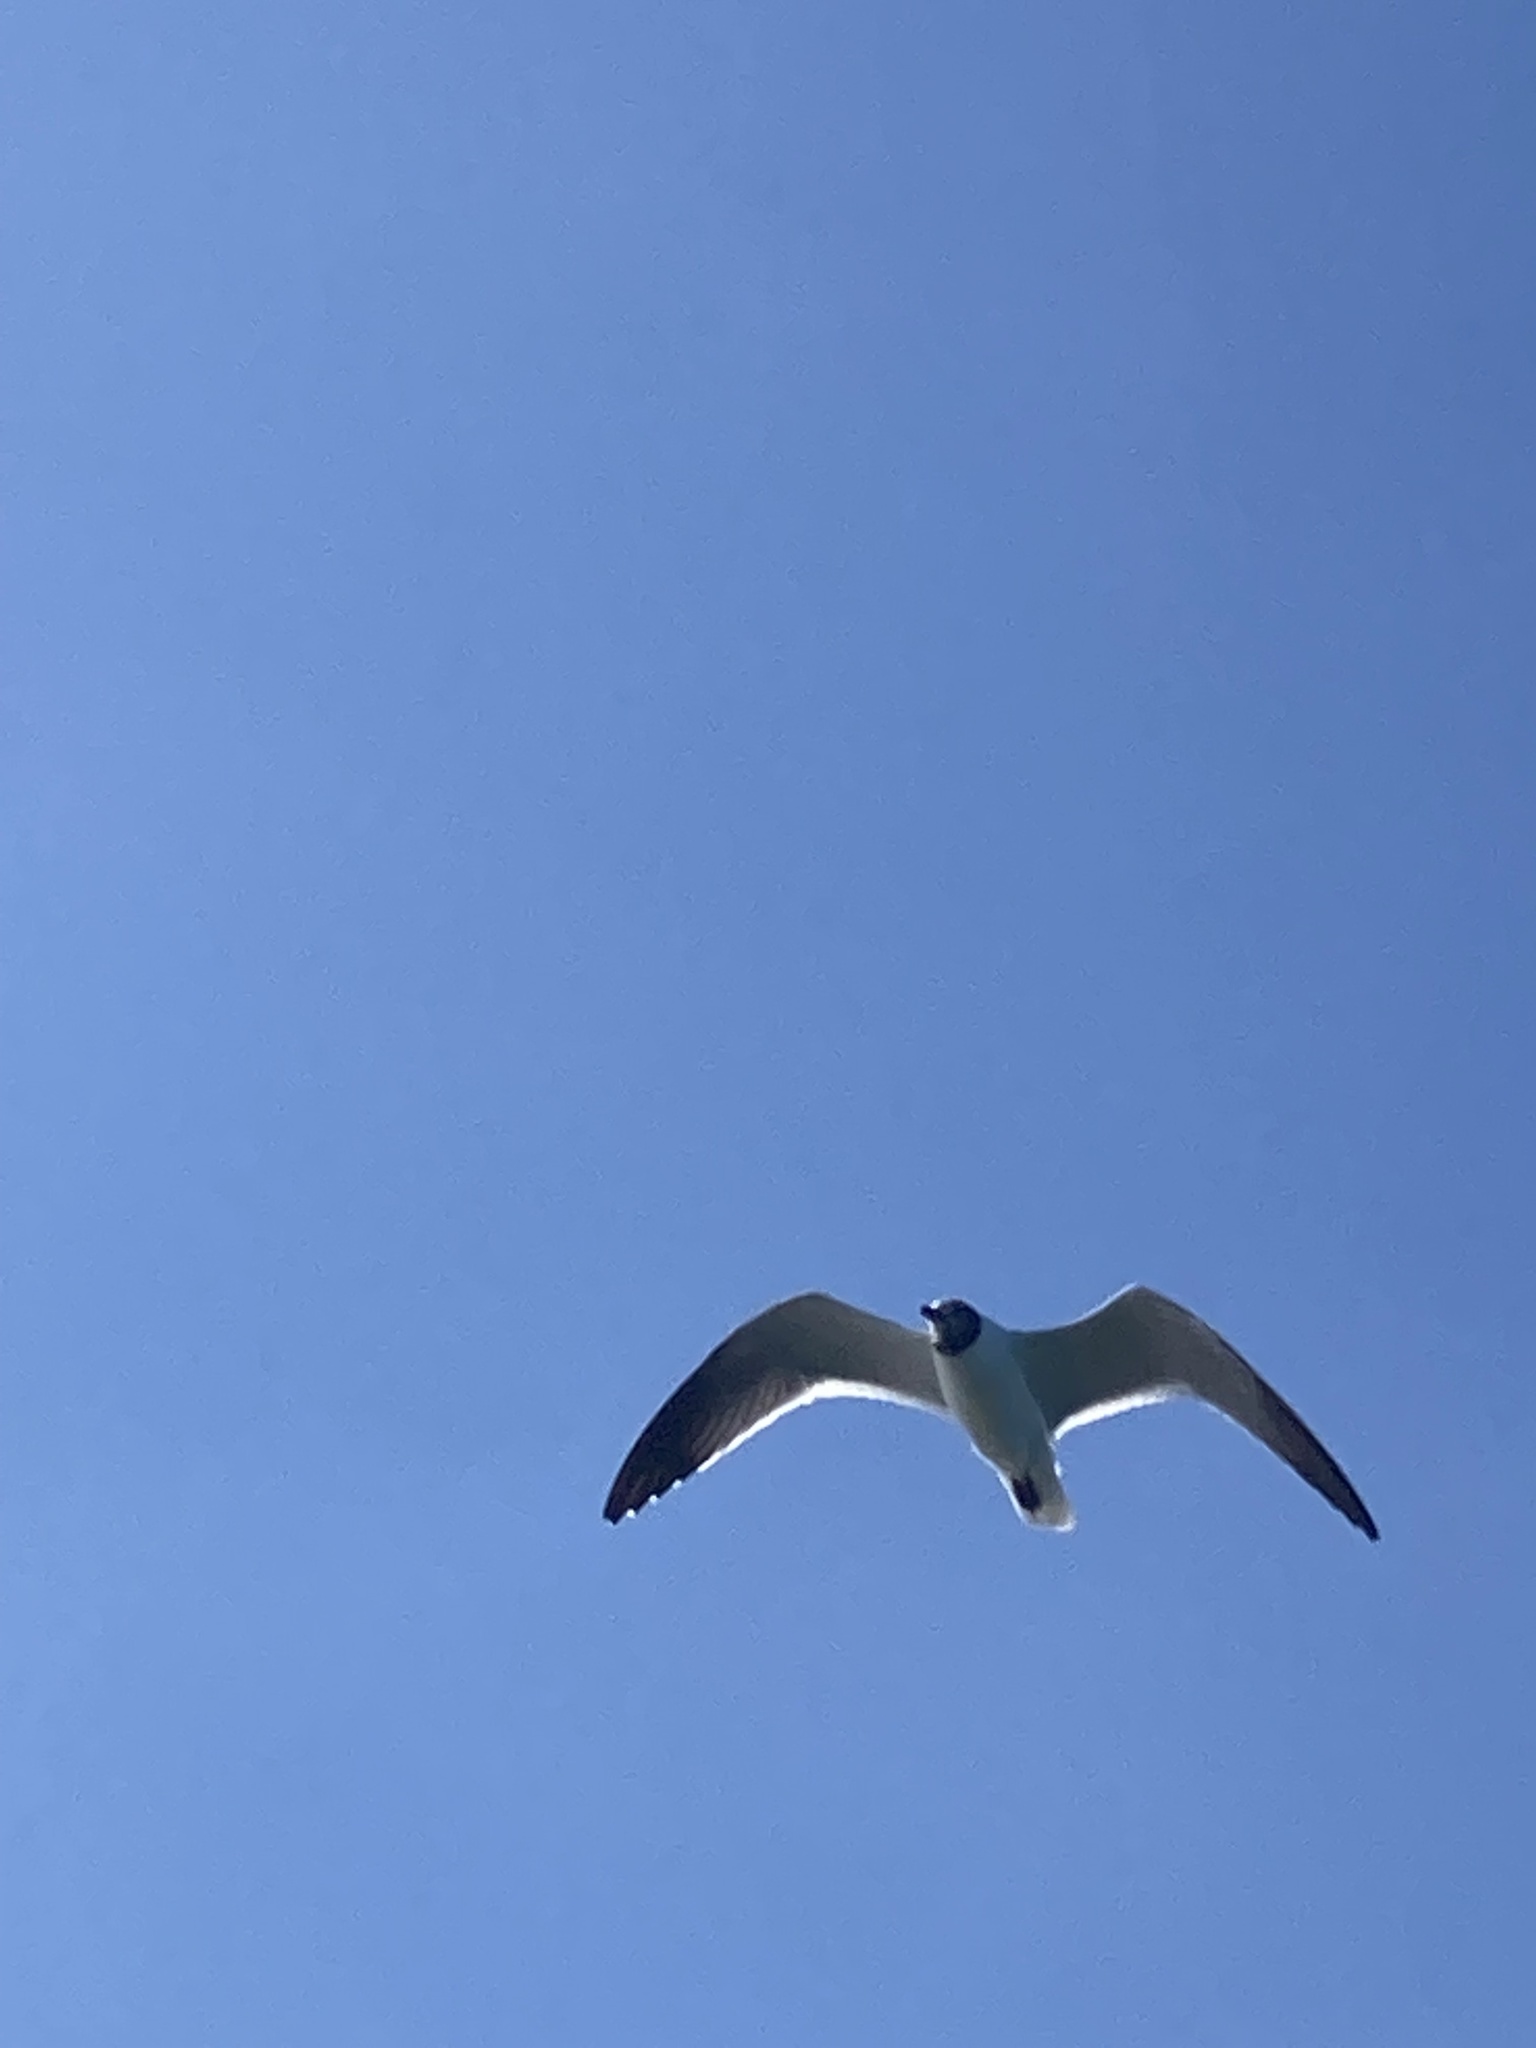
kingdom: Animalia
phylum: Chordata
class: Aves
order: Charadriiformes
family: Laridae
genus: Leucophaeus
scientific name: Leucophaeus atricilla
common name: Laughing gull
